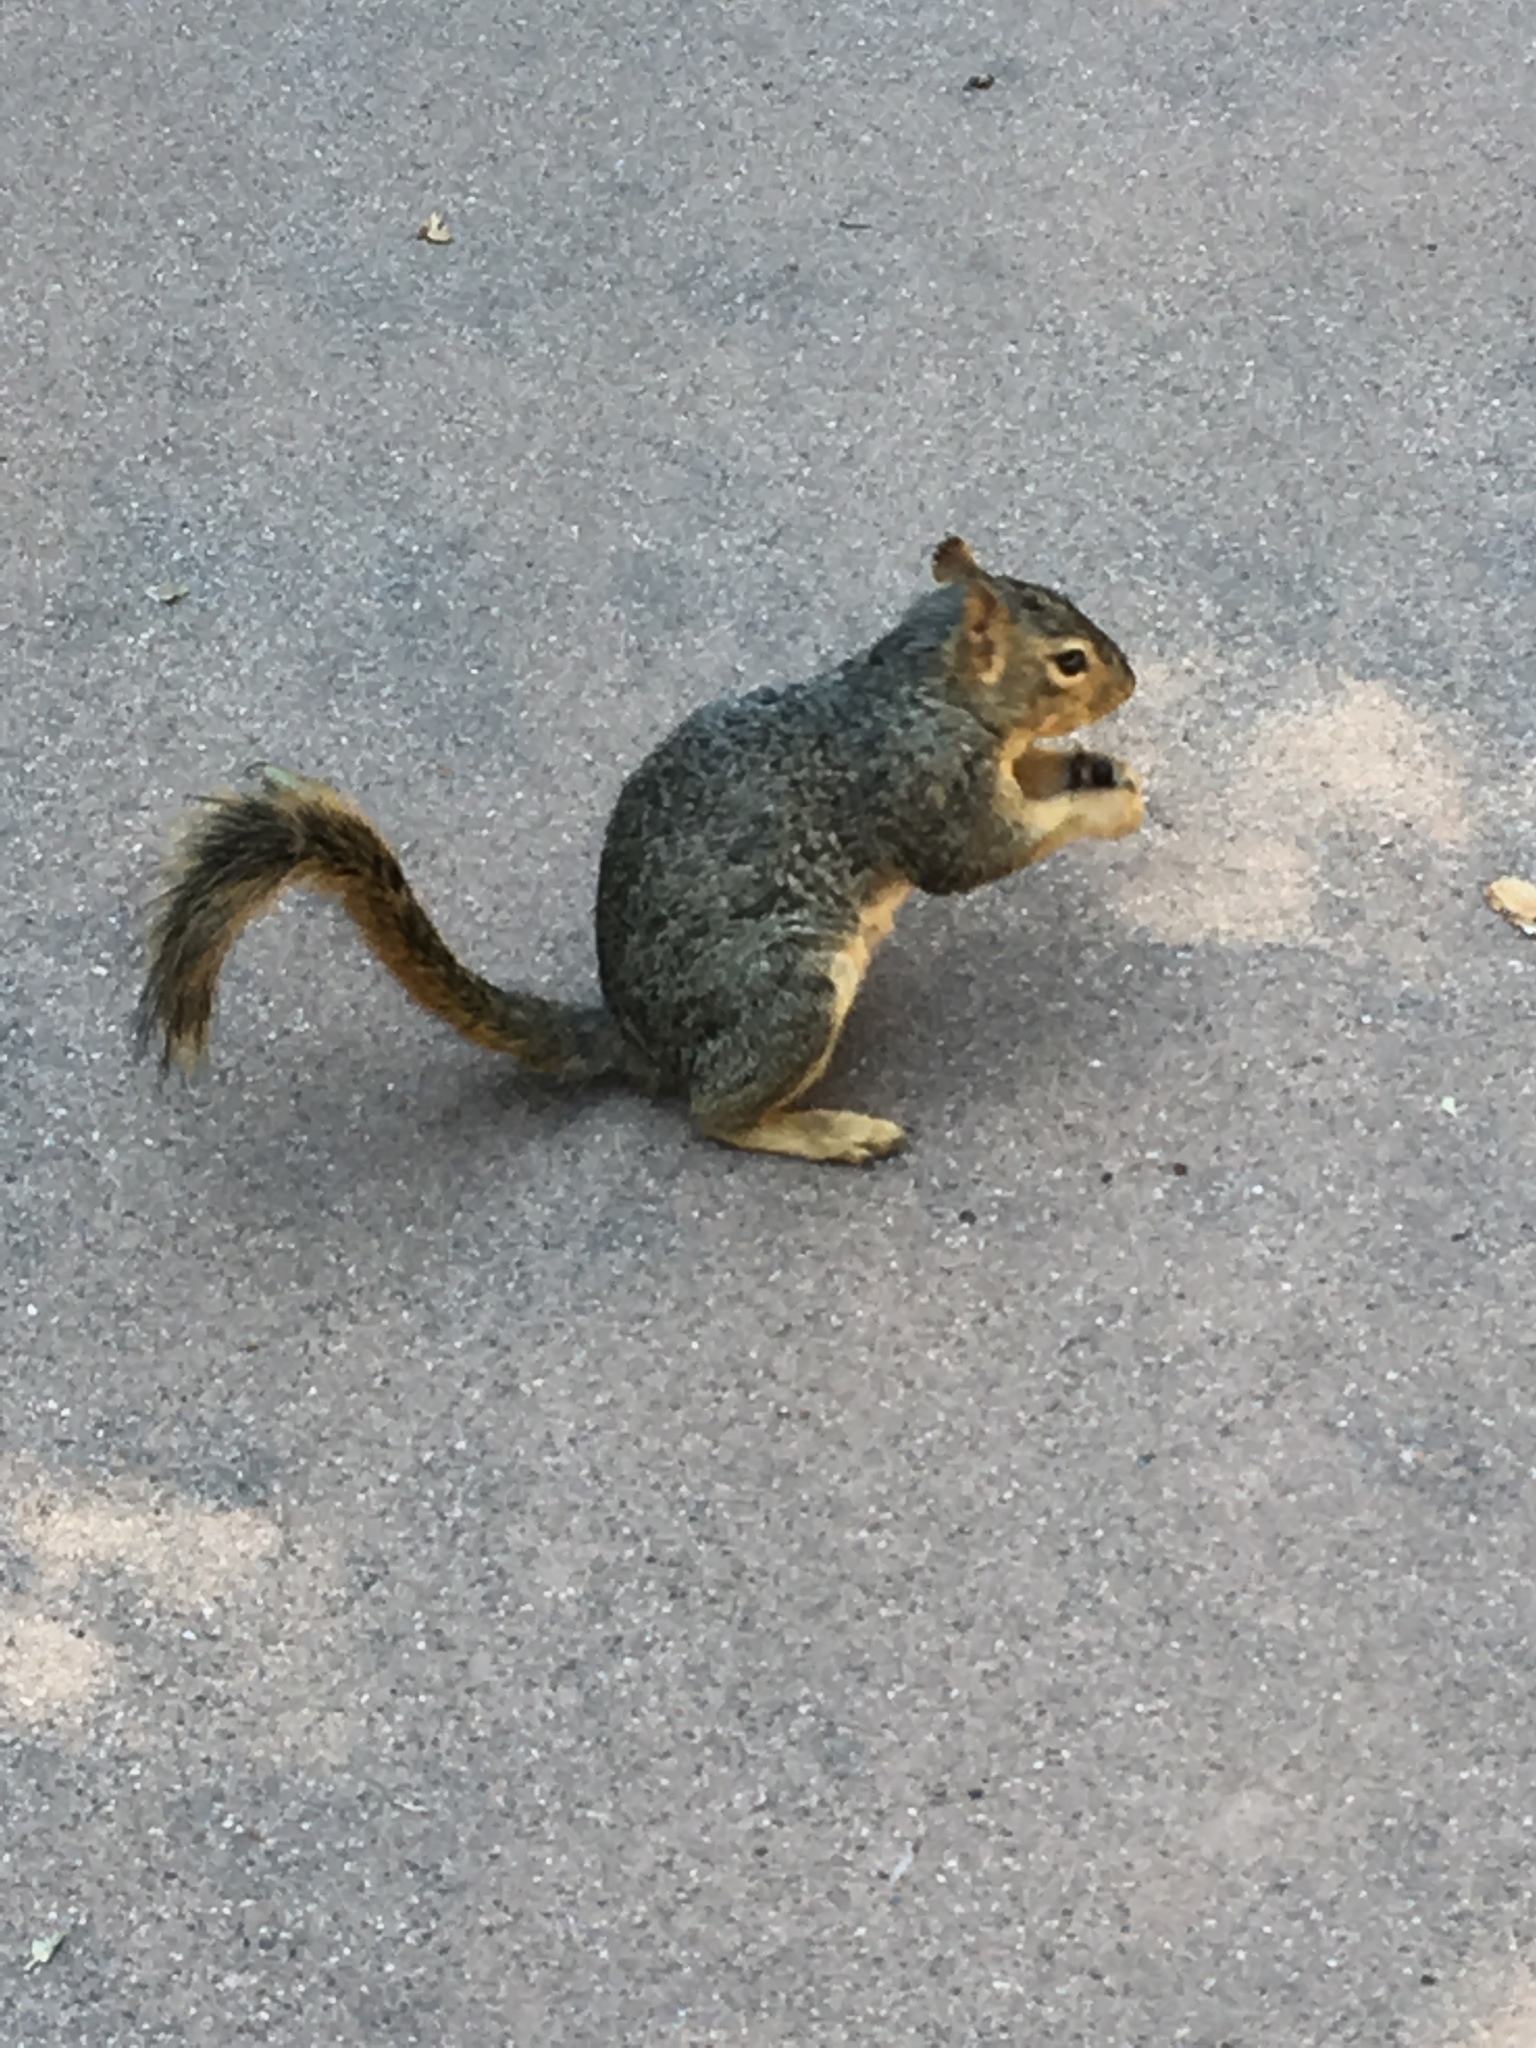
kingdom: Animalia
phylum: Chordata
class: Mammalia
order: Rodentia
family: Sciuridae
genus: Sciurus
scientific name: Sciurus niger
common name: Fox squirrel
